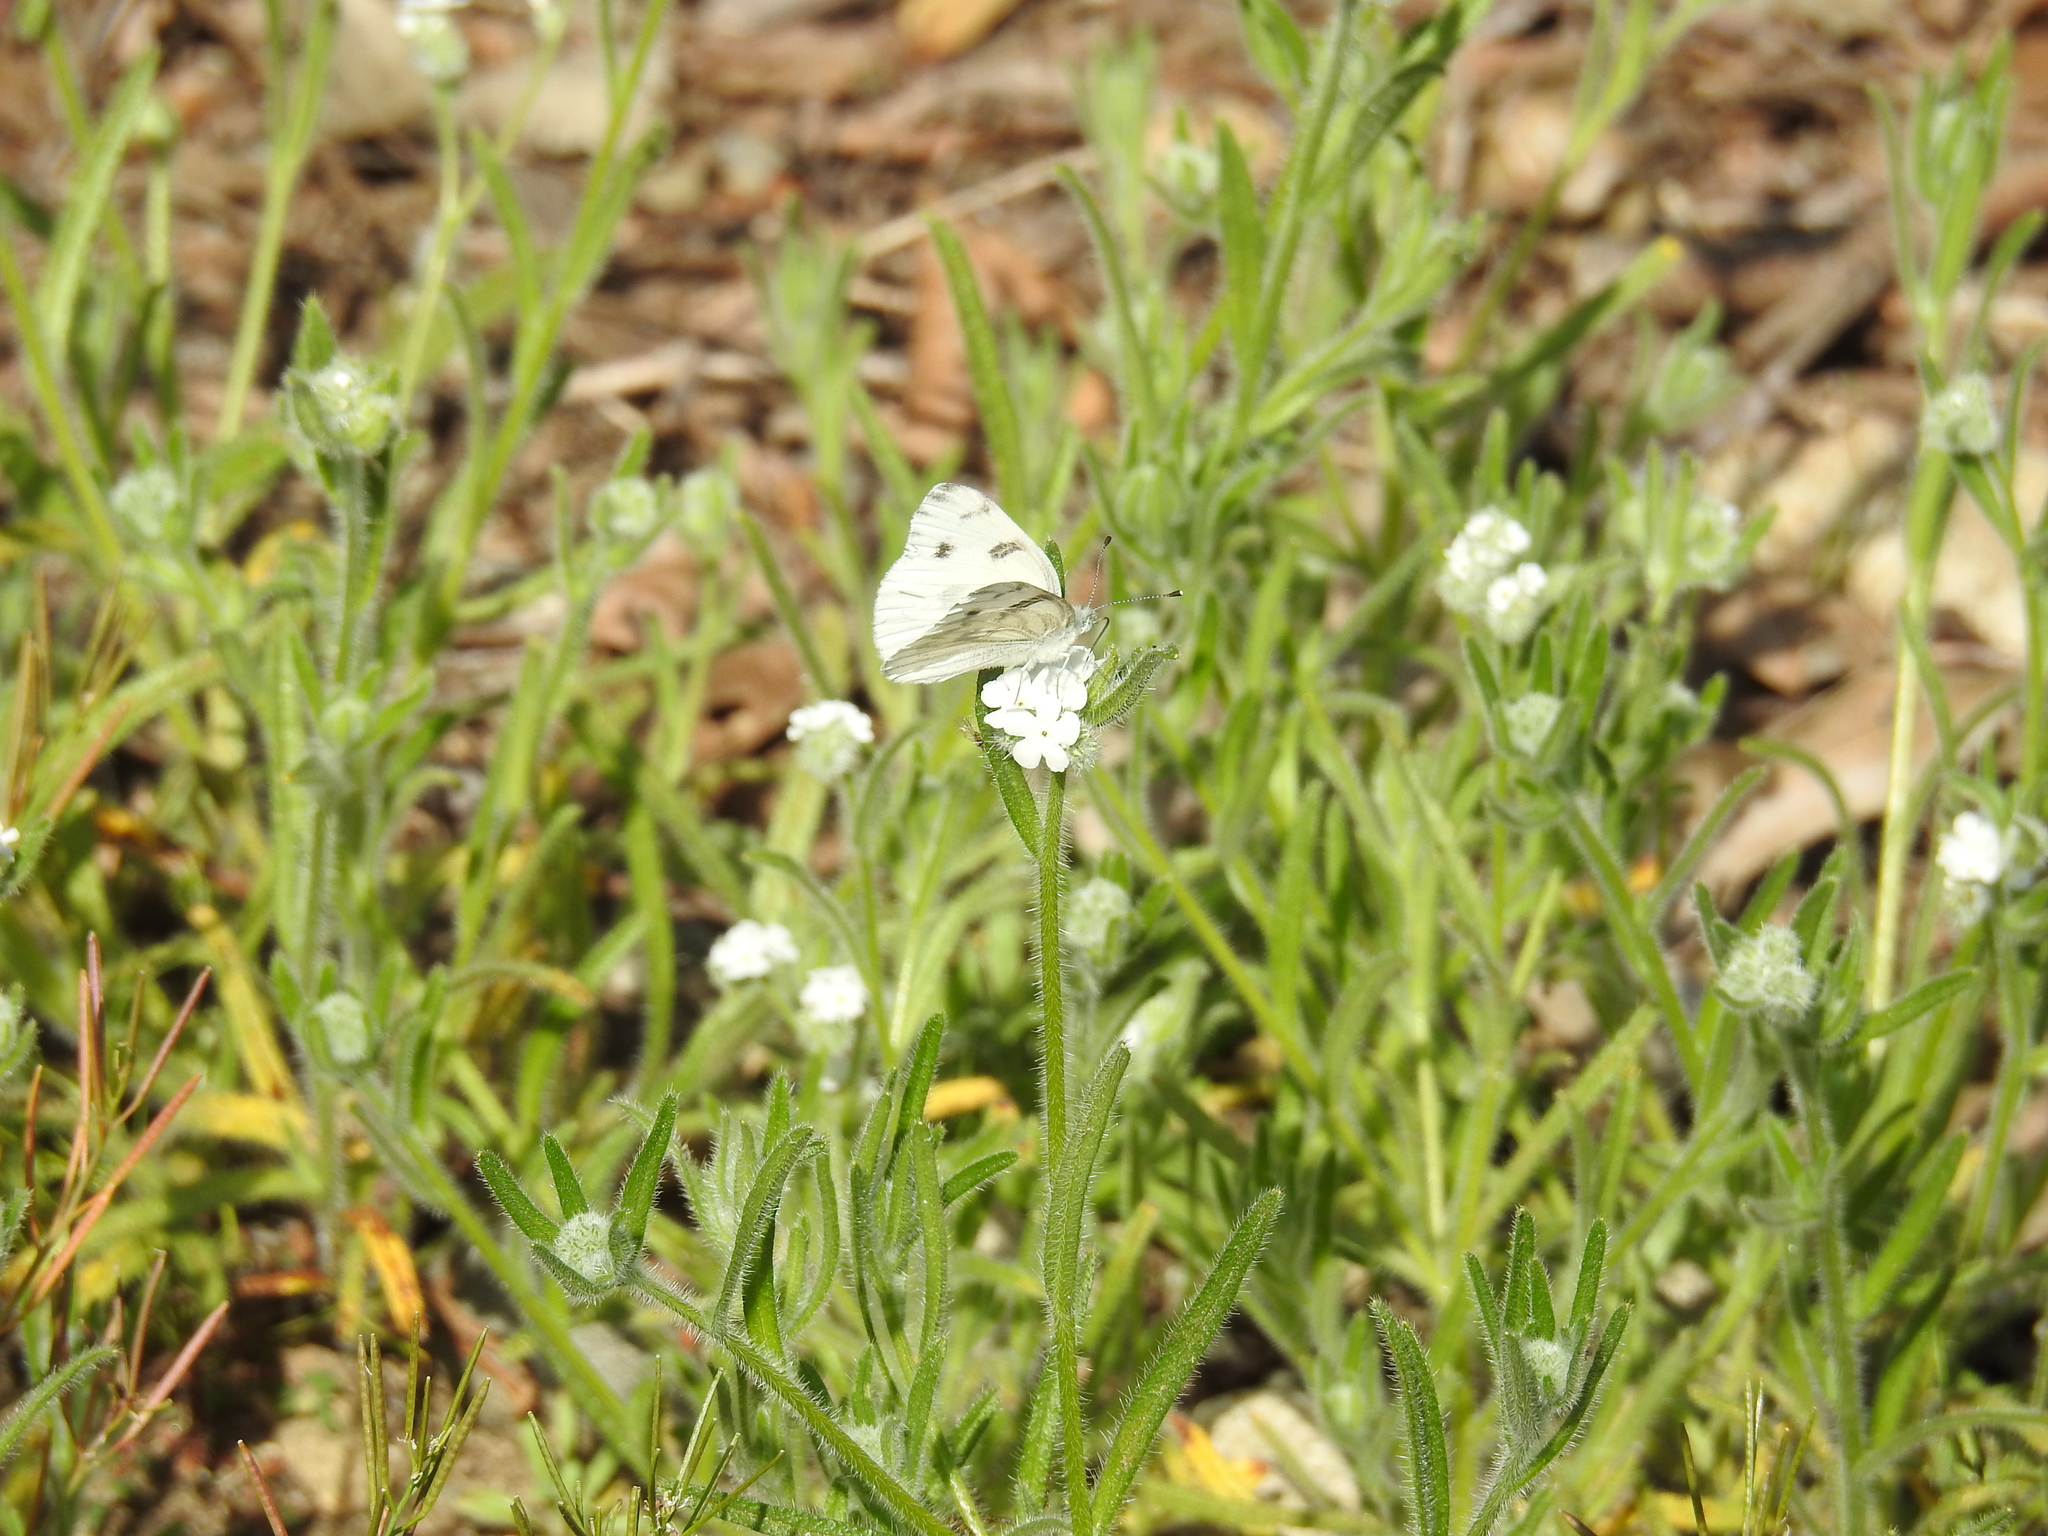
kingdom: Animalia
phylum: Arthropoda
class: Insecta
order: Lepidoptera
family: Pieridae
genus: Pontia
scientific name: Pontia protodice
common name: Checkered white
